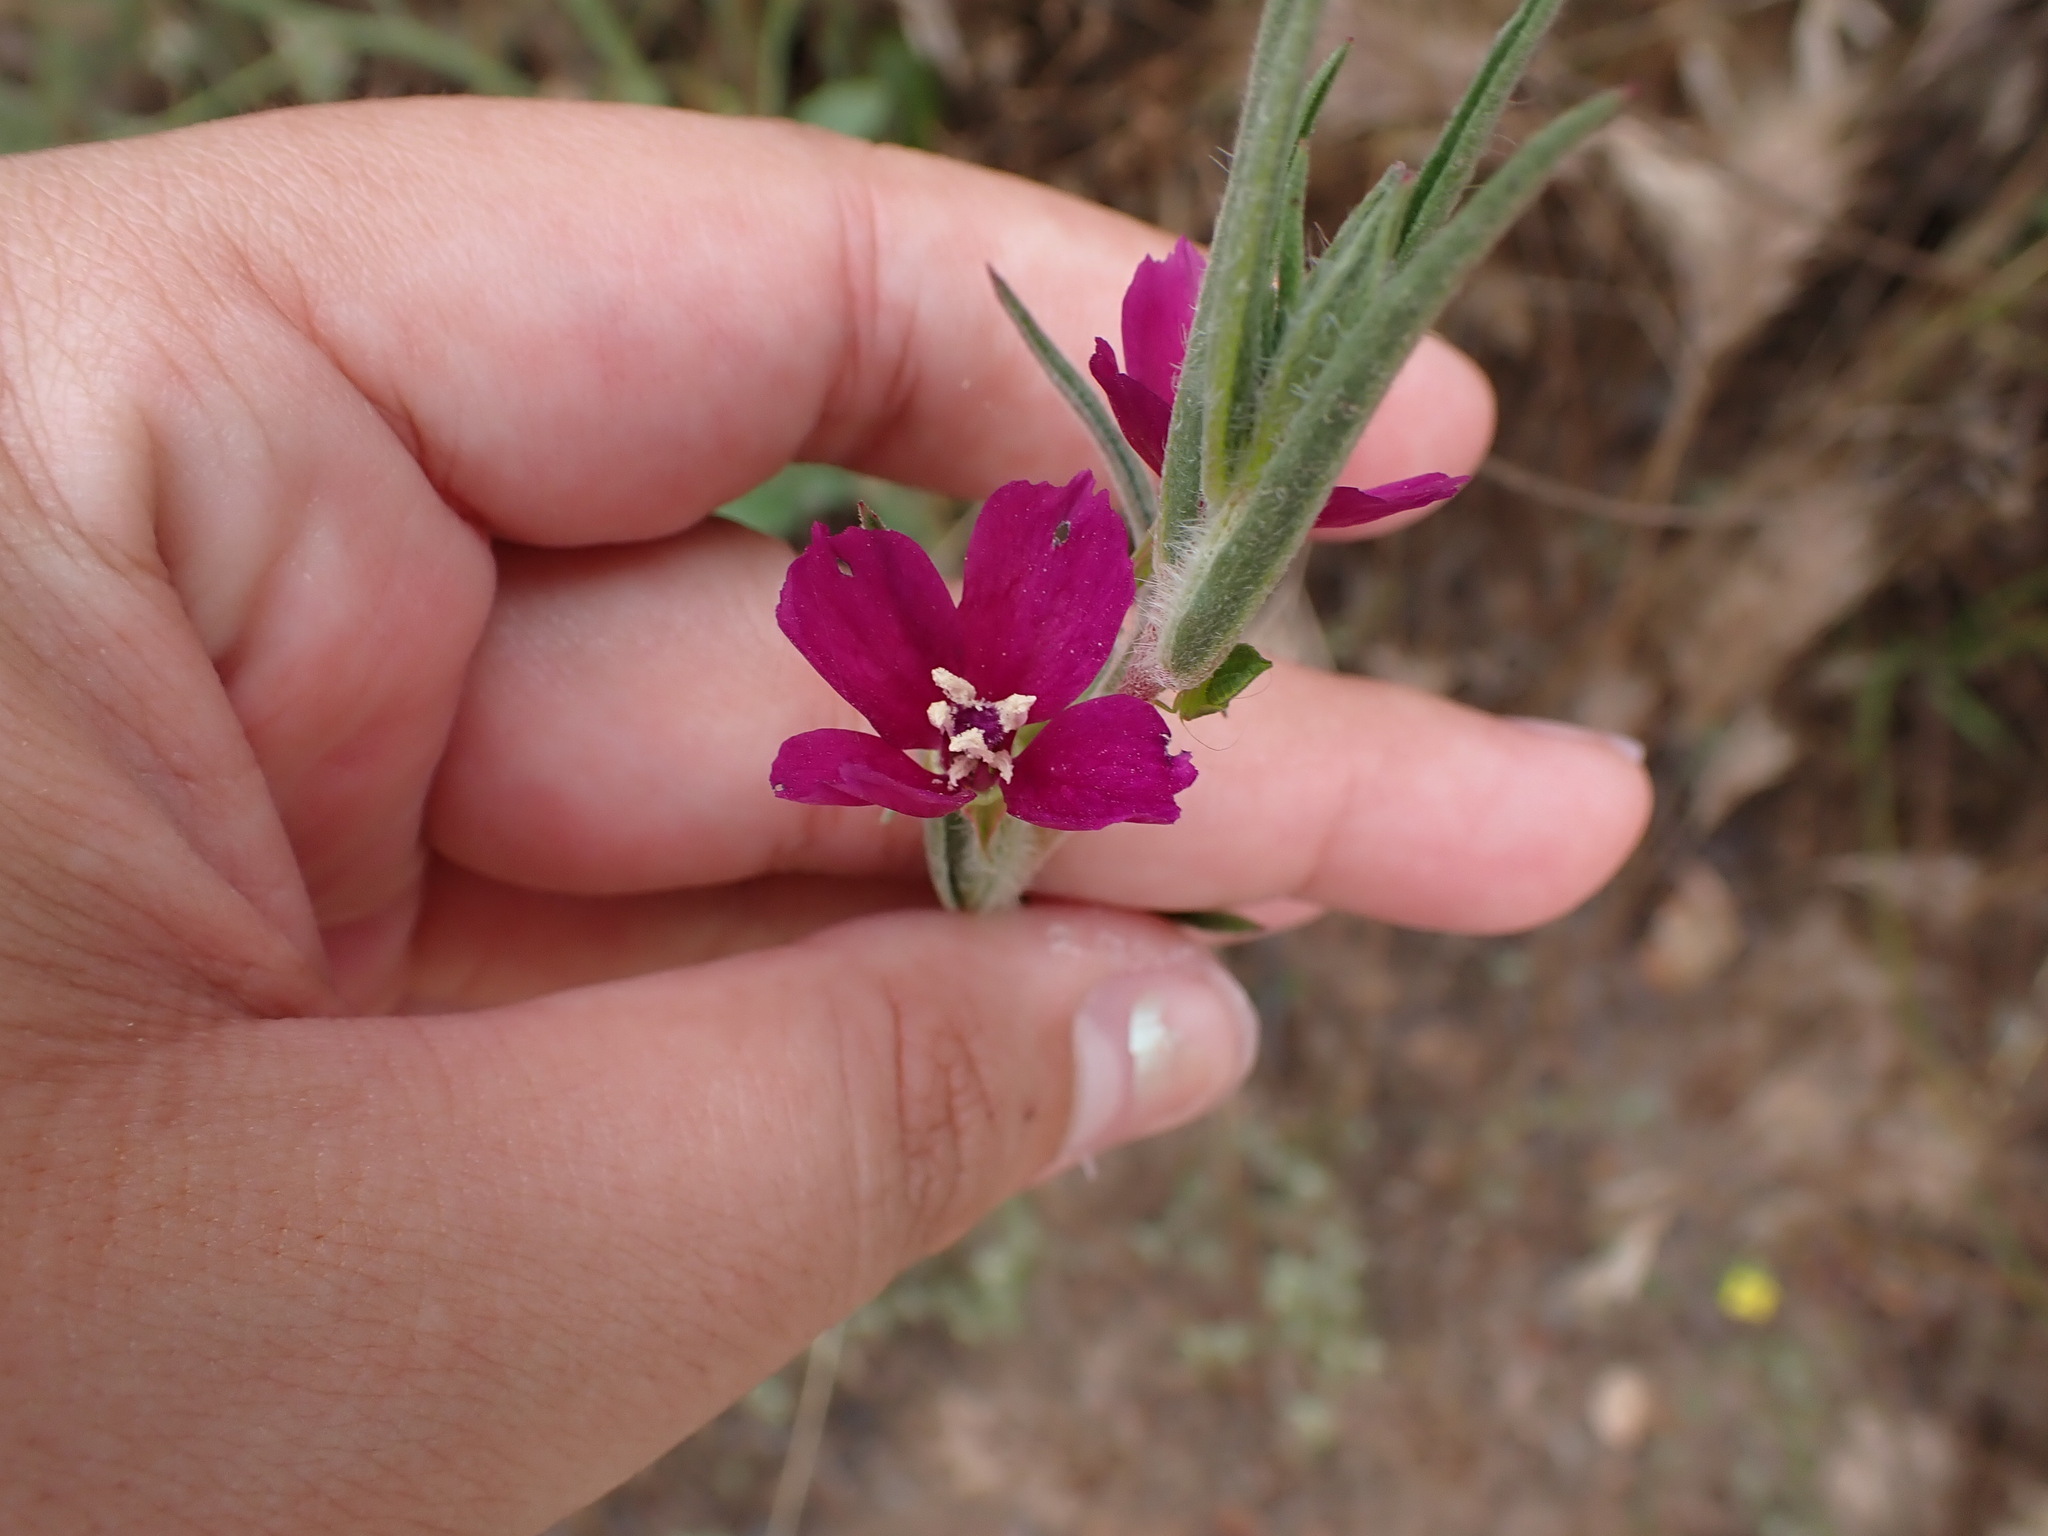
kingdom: Plantae
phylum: Tracheophyta
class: Magnoliopsida
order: Myrtales
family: Onagraceae
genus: Clarkia
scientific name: Clarkia purpurea
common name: Purple clarkia
